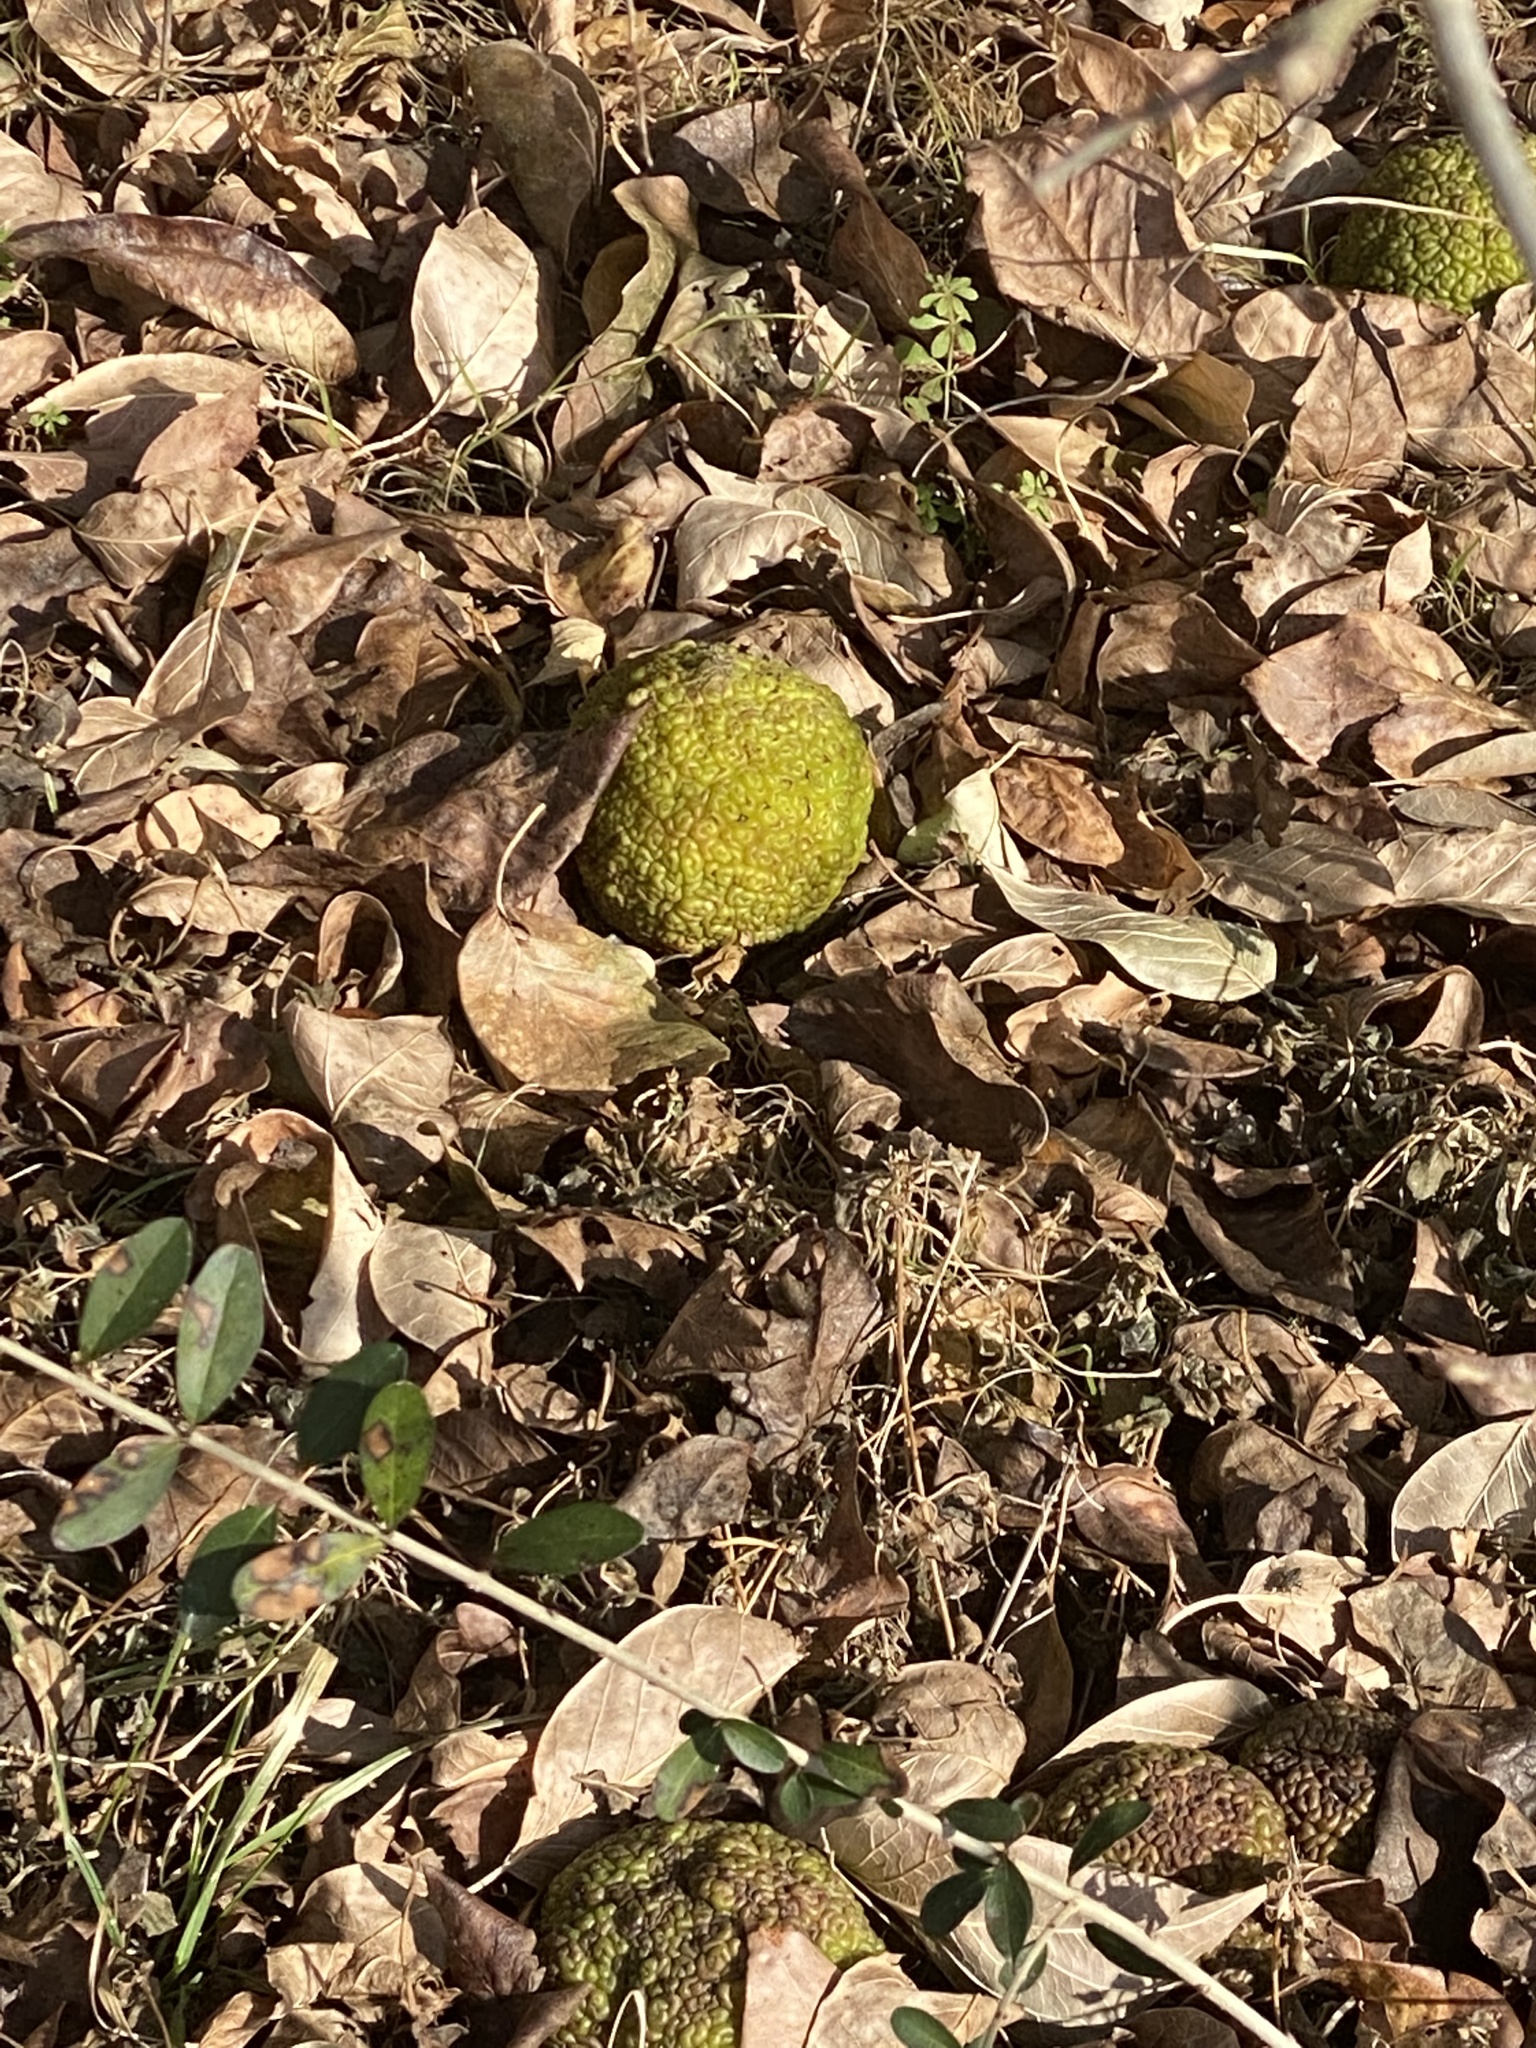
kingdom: Plantae
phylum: Tracheophyta
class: Magnoliopsida
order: Rosales
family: Moraceae
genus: Maclura
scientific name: Maclura pomifera
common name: Osage-orange
